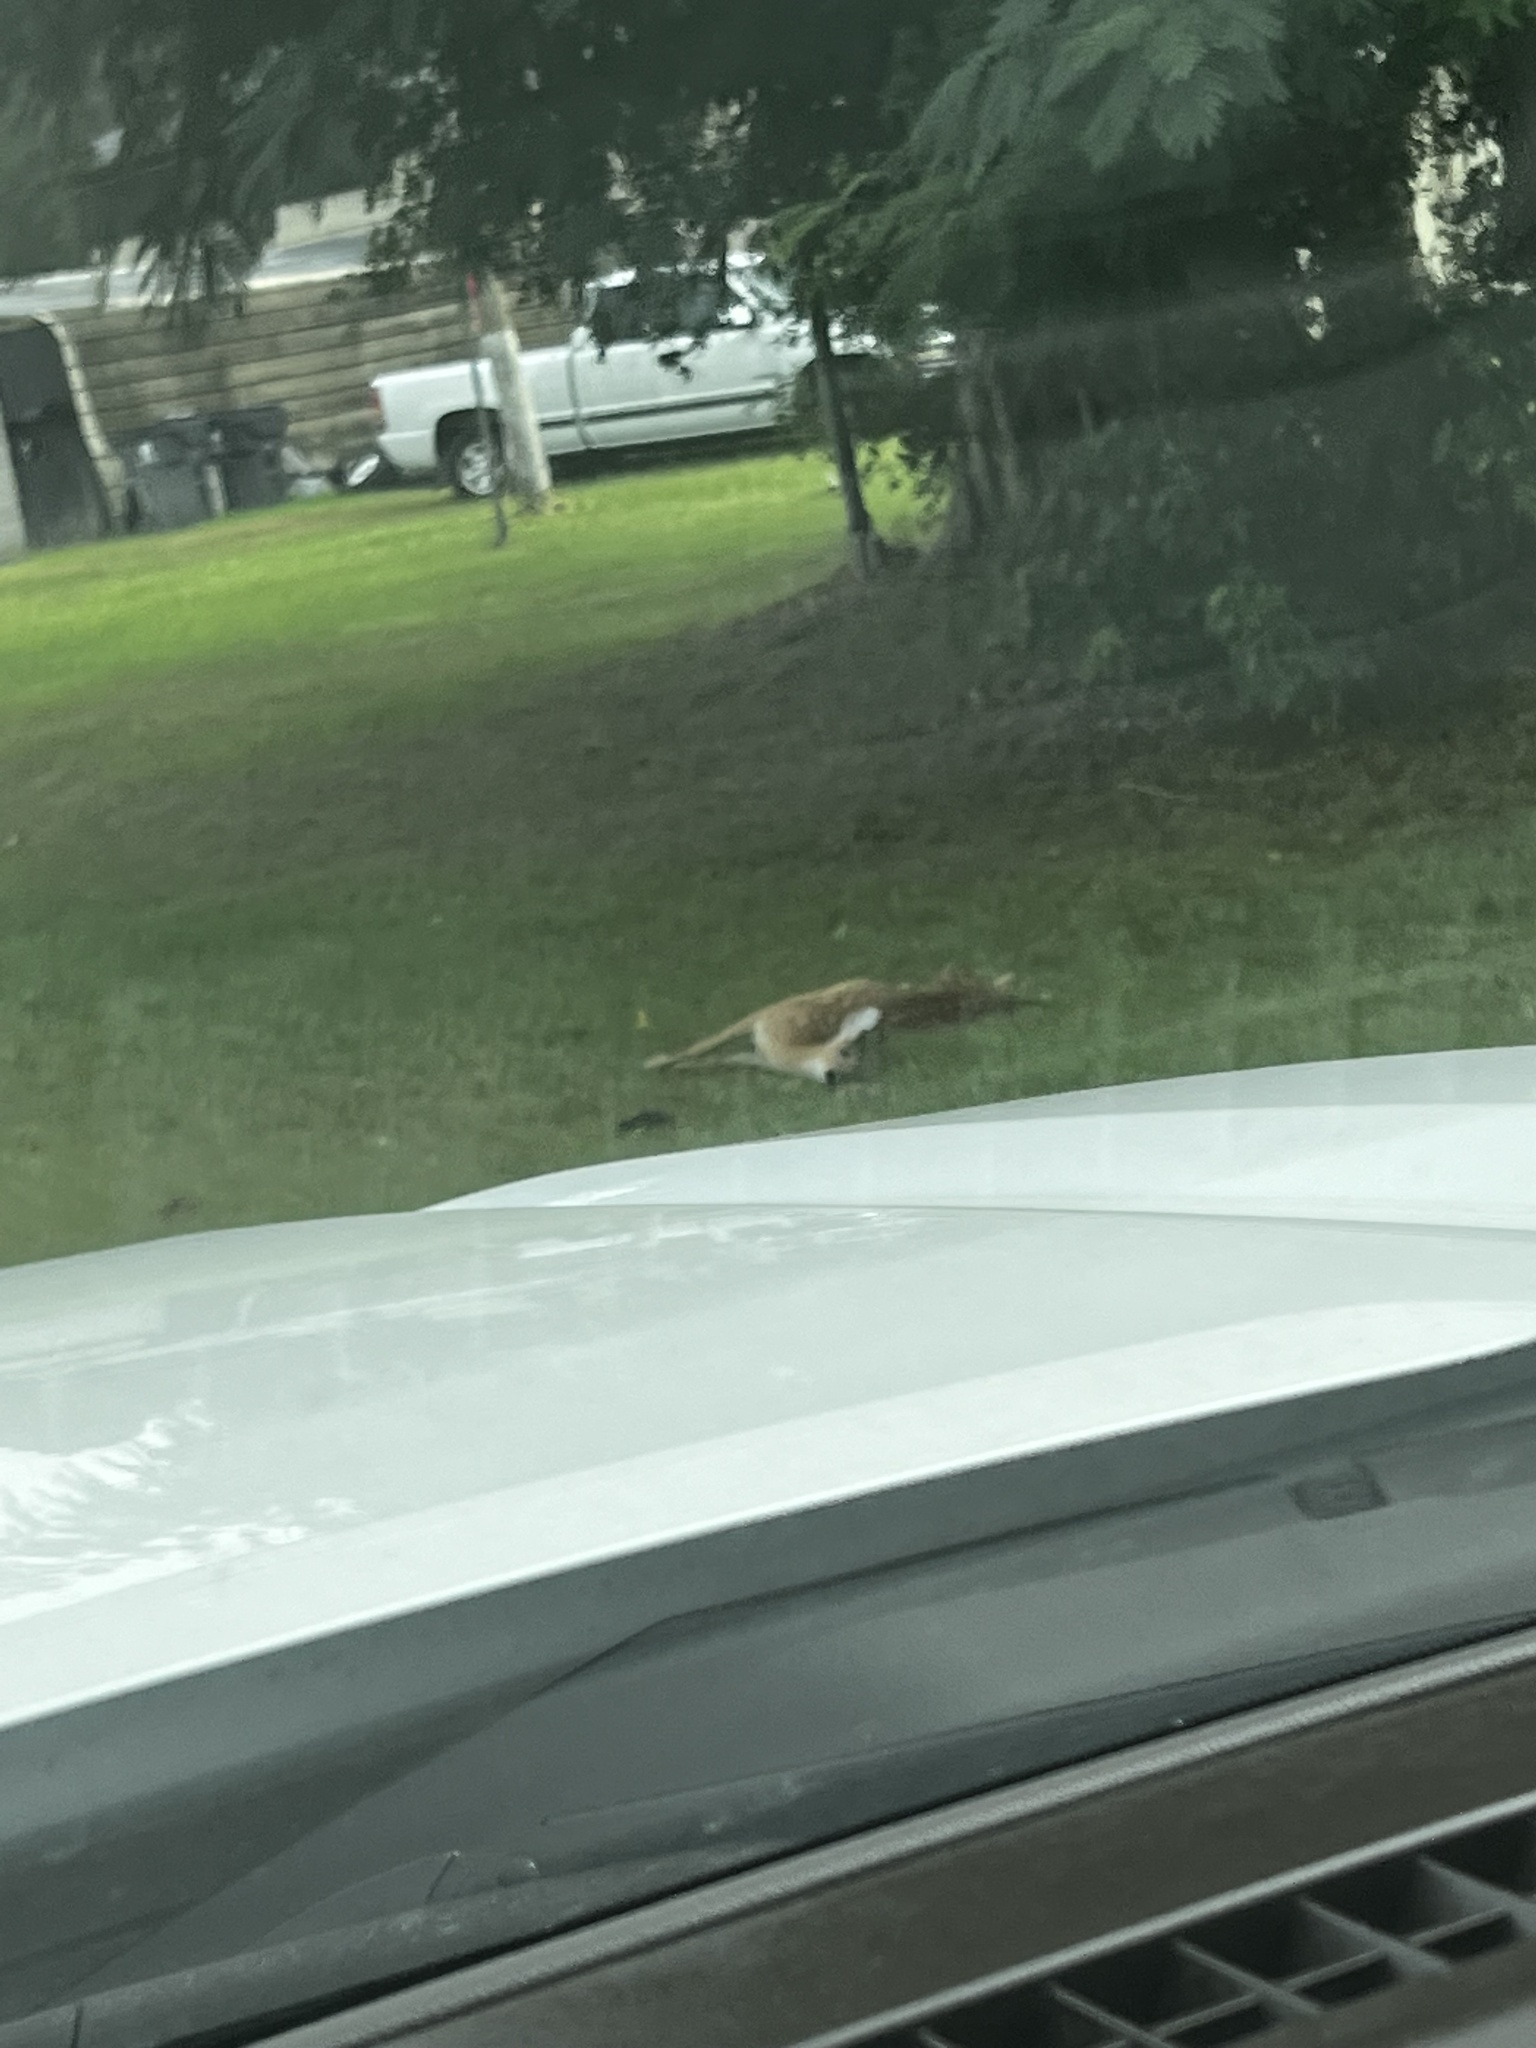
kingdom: Animalia
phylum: Chordata
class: Mammalia
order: Artiodactyla
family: Cervidae
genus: Odocoileus
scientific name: Odocoileus virginianus
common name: White-tailed deer
